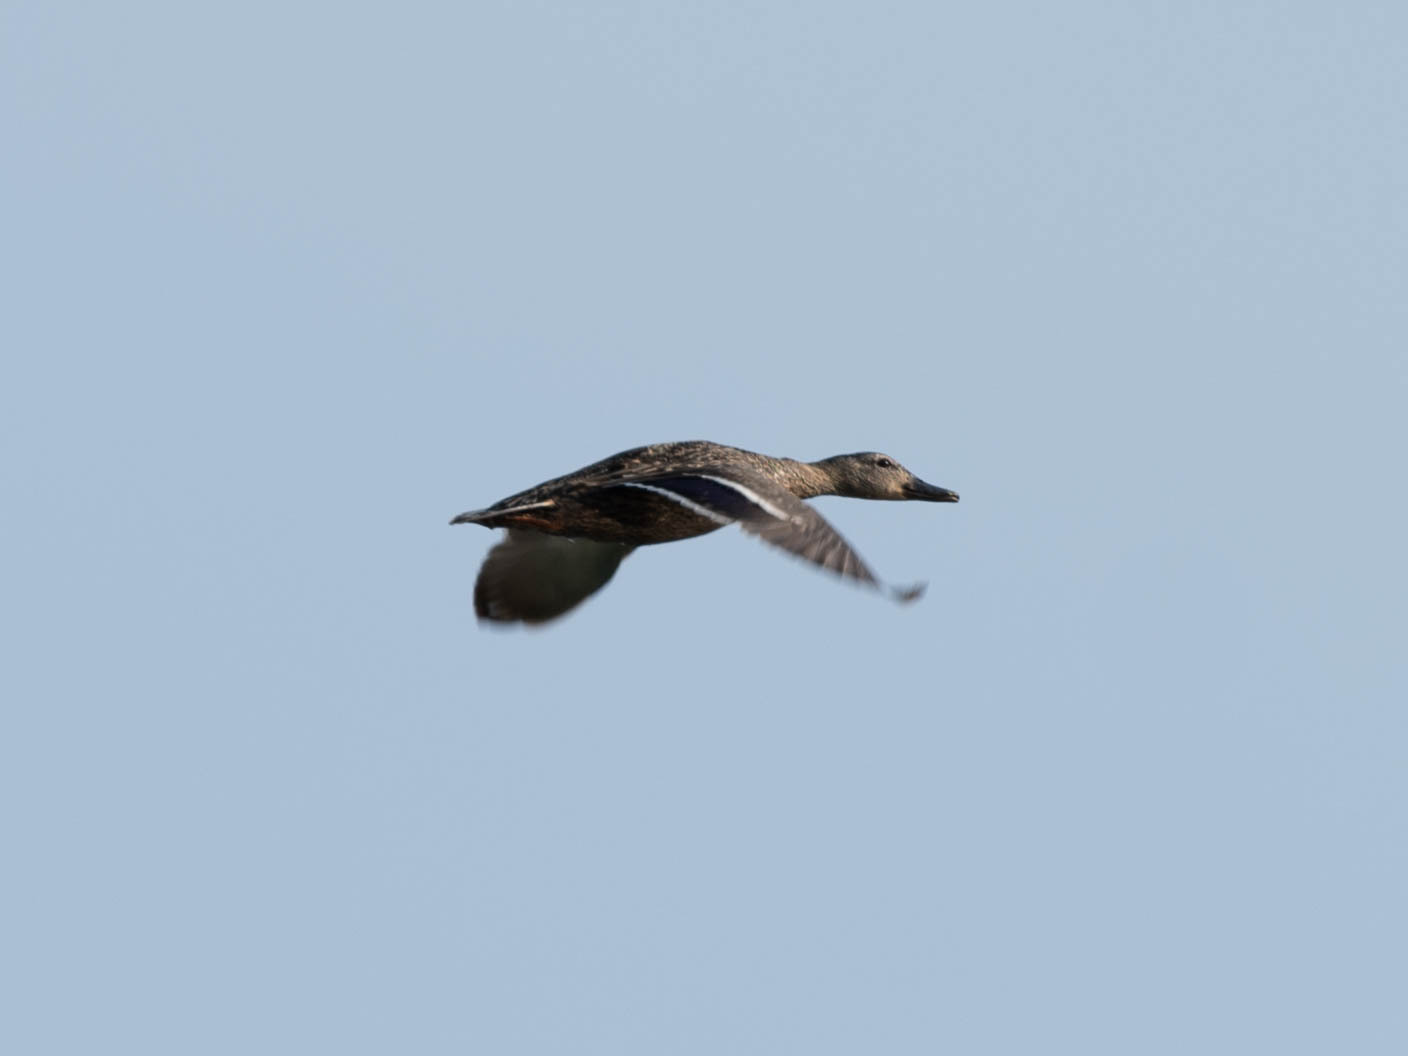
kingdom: Animalia
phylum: Chordata
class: Aves
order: Anseriformes
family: Anatidae
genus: Anas
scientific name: Anas platyrhynchos
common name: Mallard
